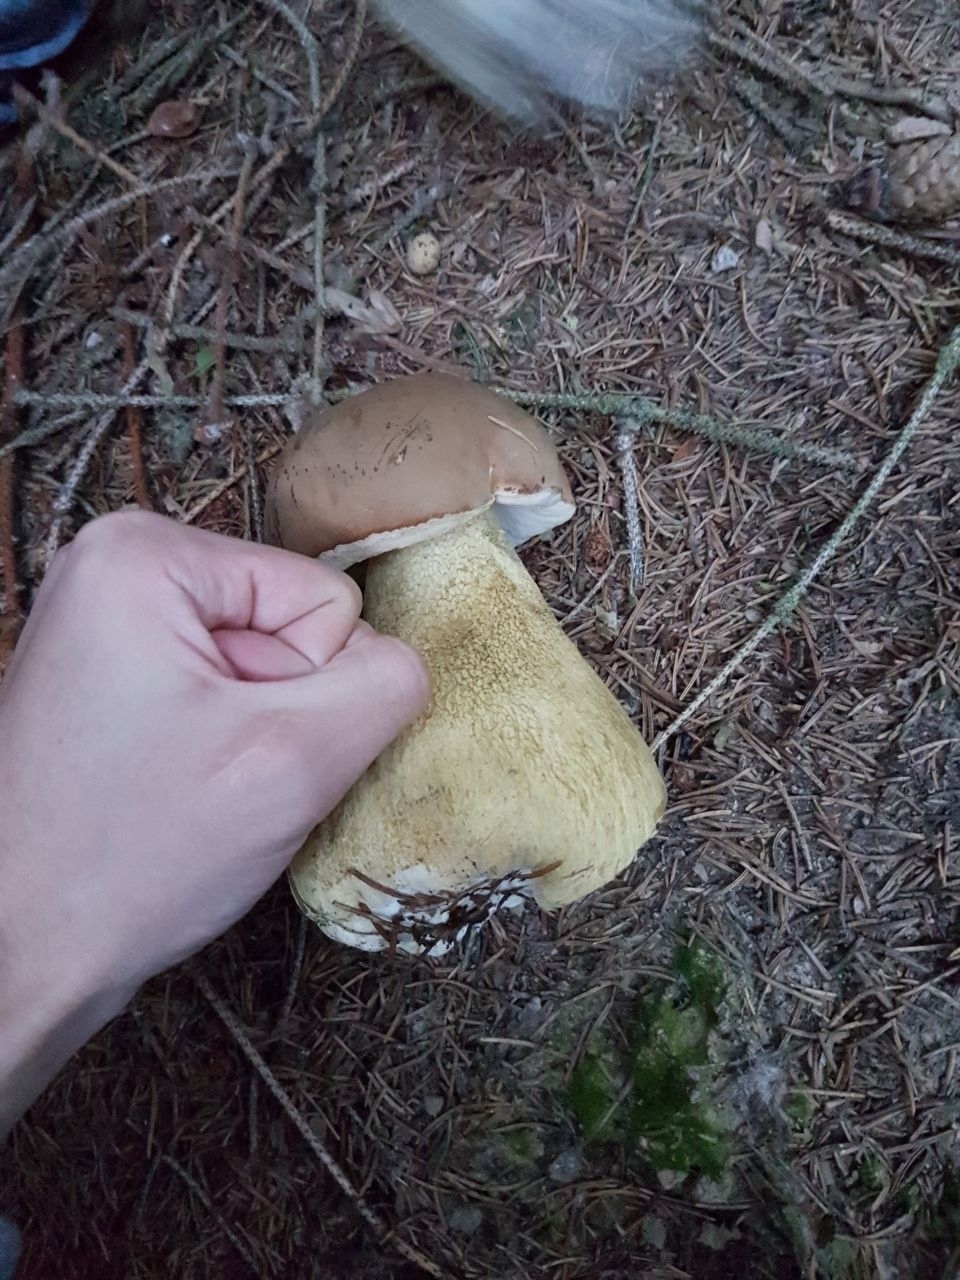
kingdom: Fungi
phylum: Basidiomycota
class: Agaricomycetes
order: Boletales
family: Boletaceae
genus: Tylopilus
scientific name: Tylopilus felleus
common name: Bitter bolete
